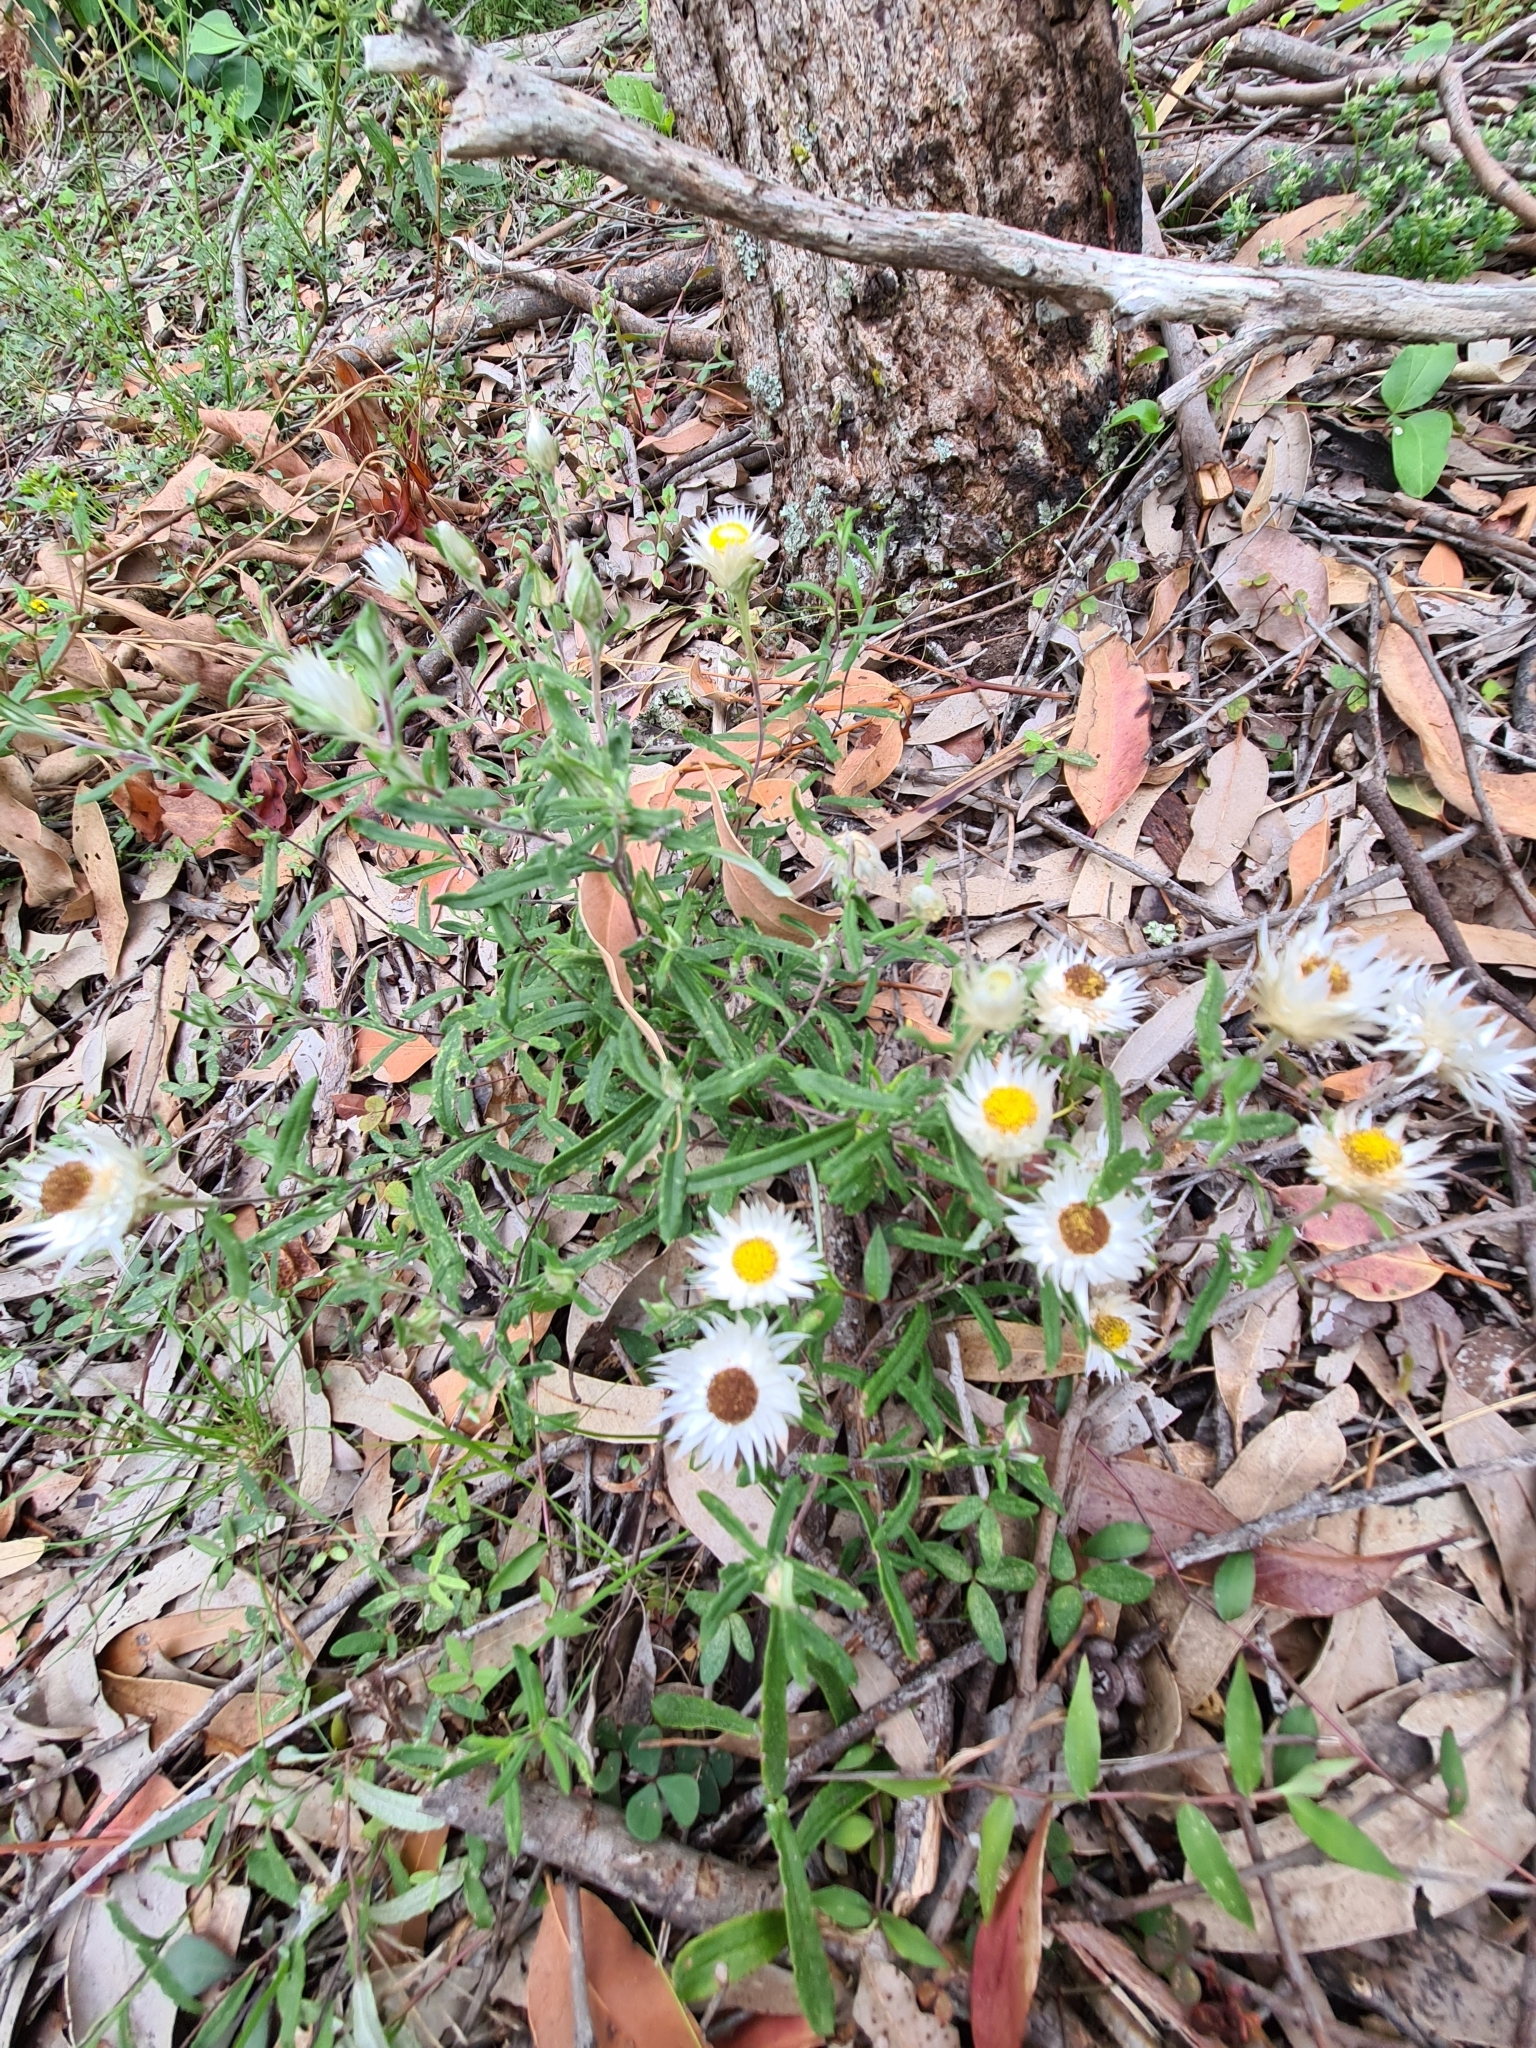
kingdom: Plantae
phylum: Tracheophyta
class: Magnoliopsida
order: Asterales
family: Asteraceae
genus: Helichrysum
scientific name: Helichrysum leucopsideum
